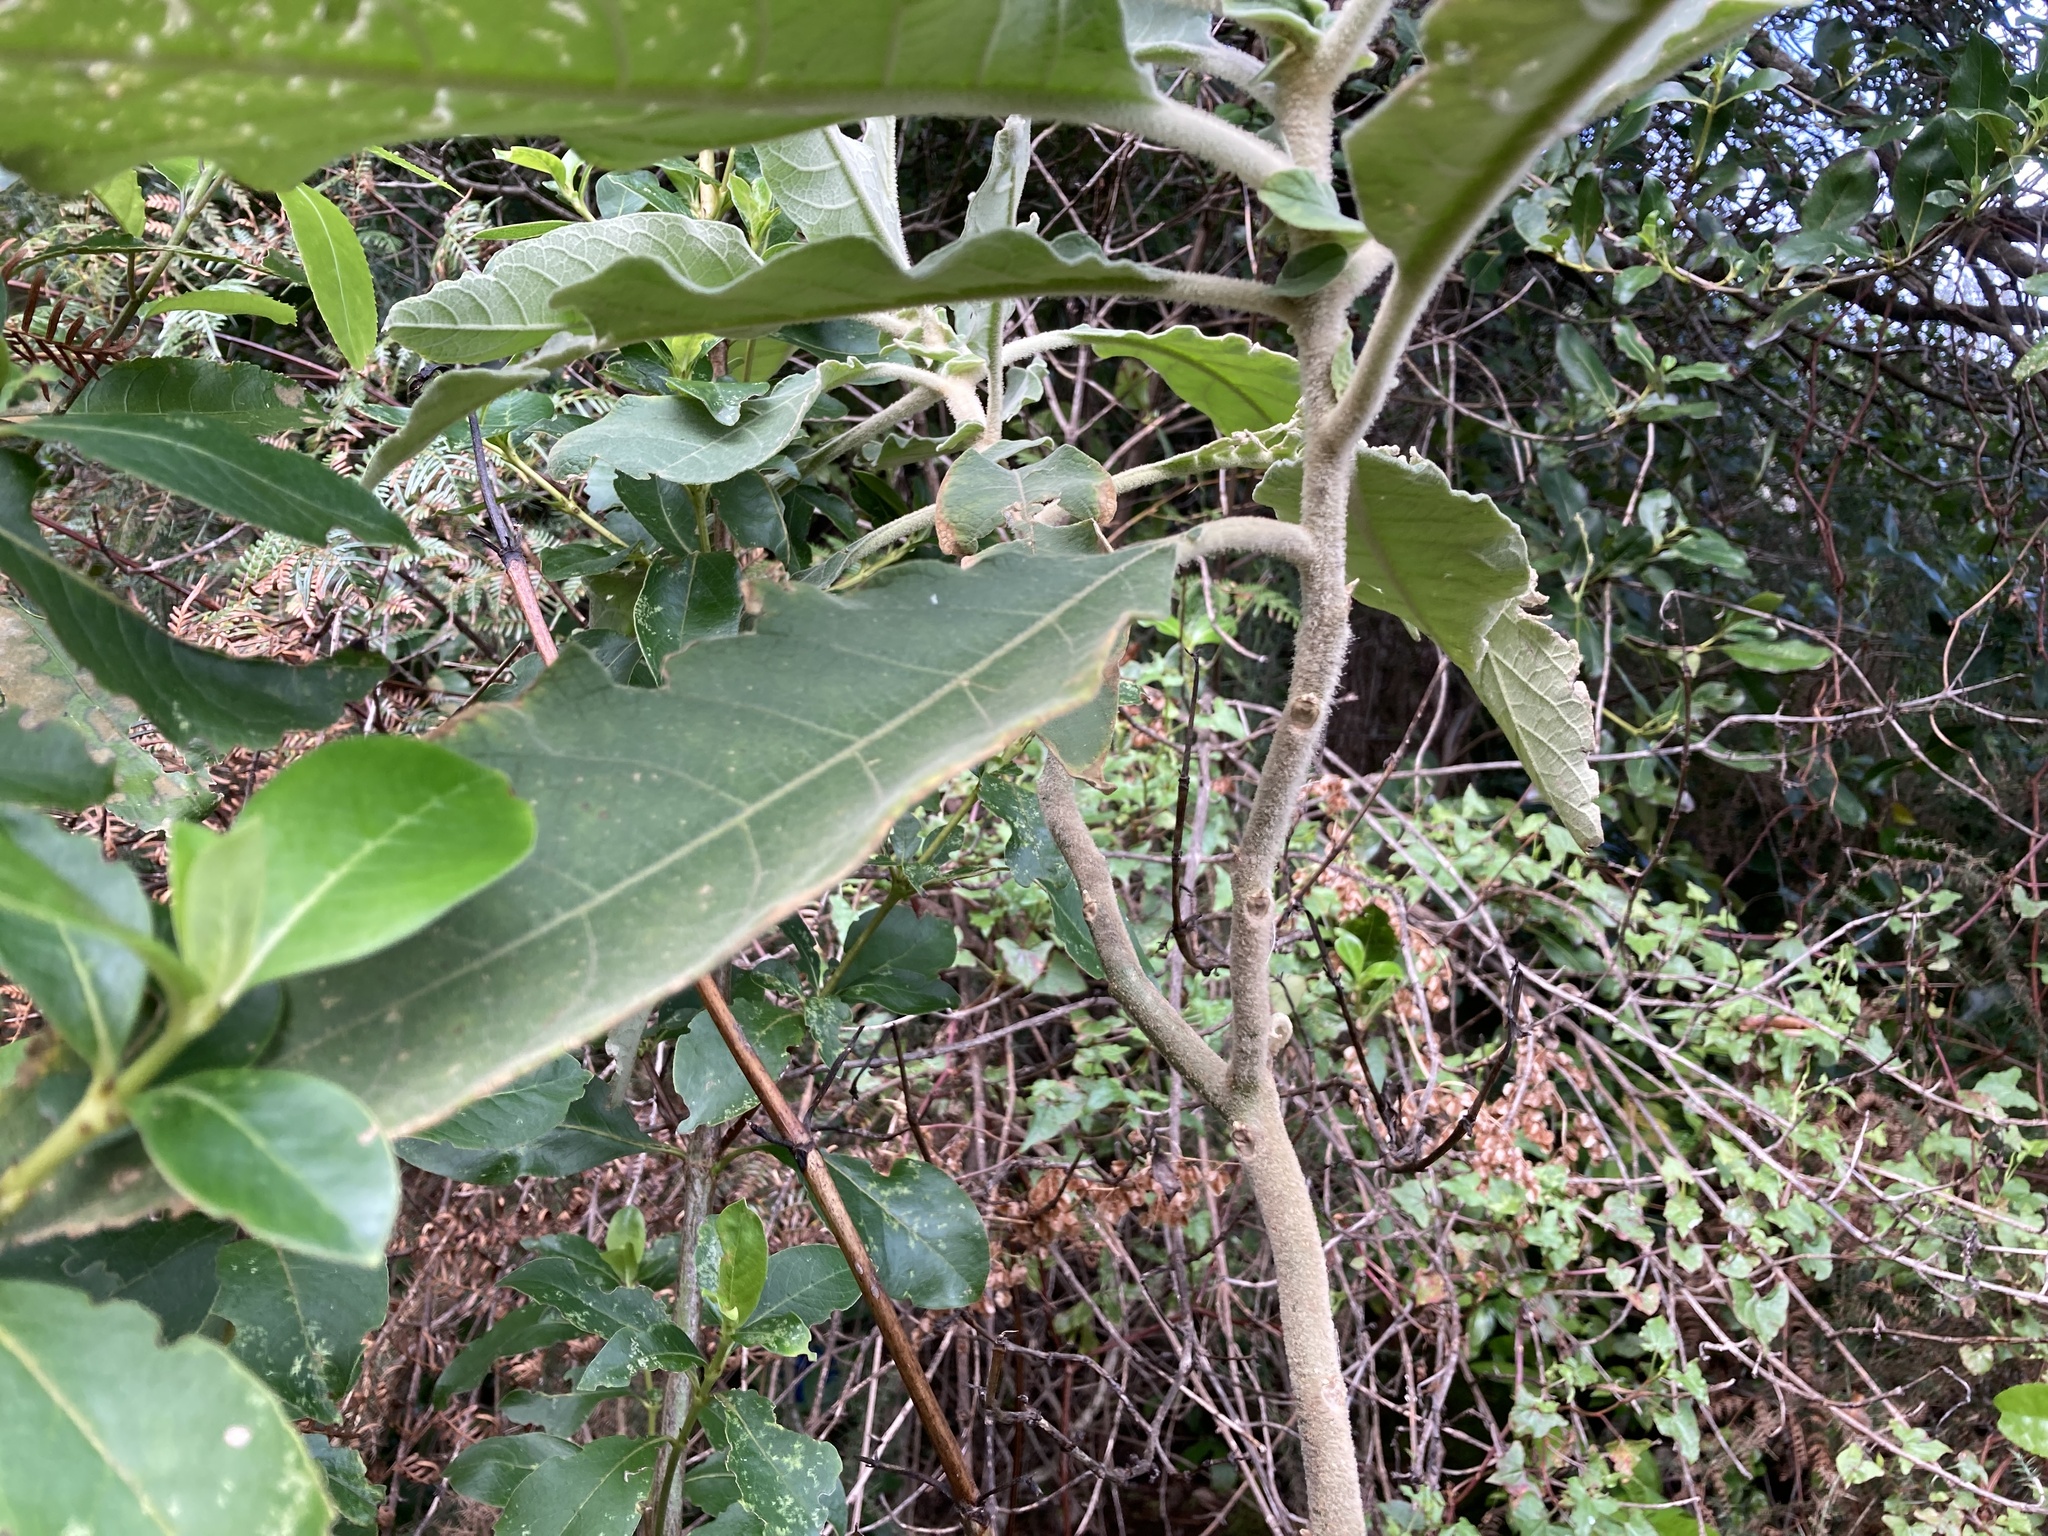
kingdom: Plantae
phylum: Tracheophyta
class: Magnoliopsida
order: Solanales
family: Solanaceae
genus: Solanum
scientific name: Solanum mauritianum
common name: Earleaf nightshade
